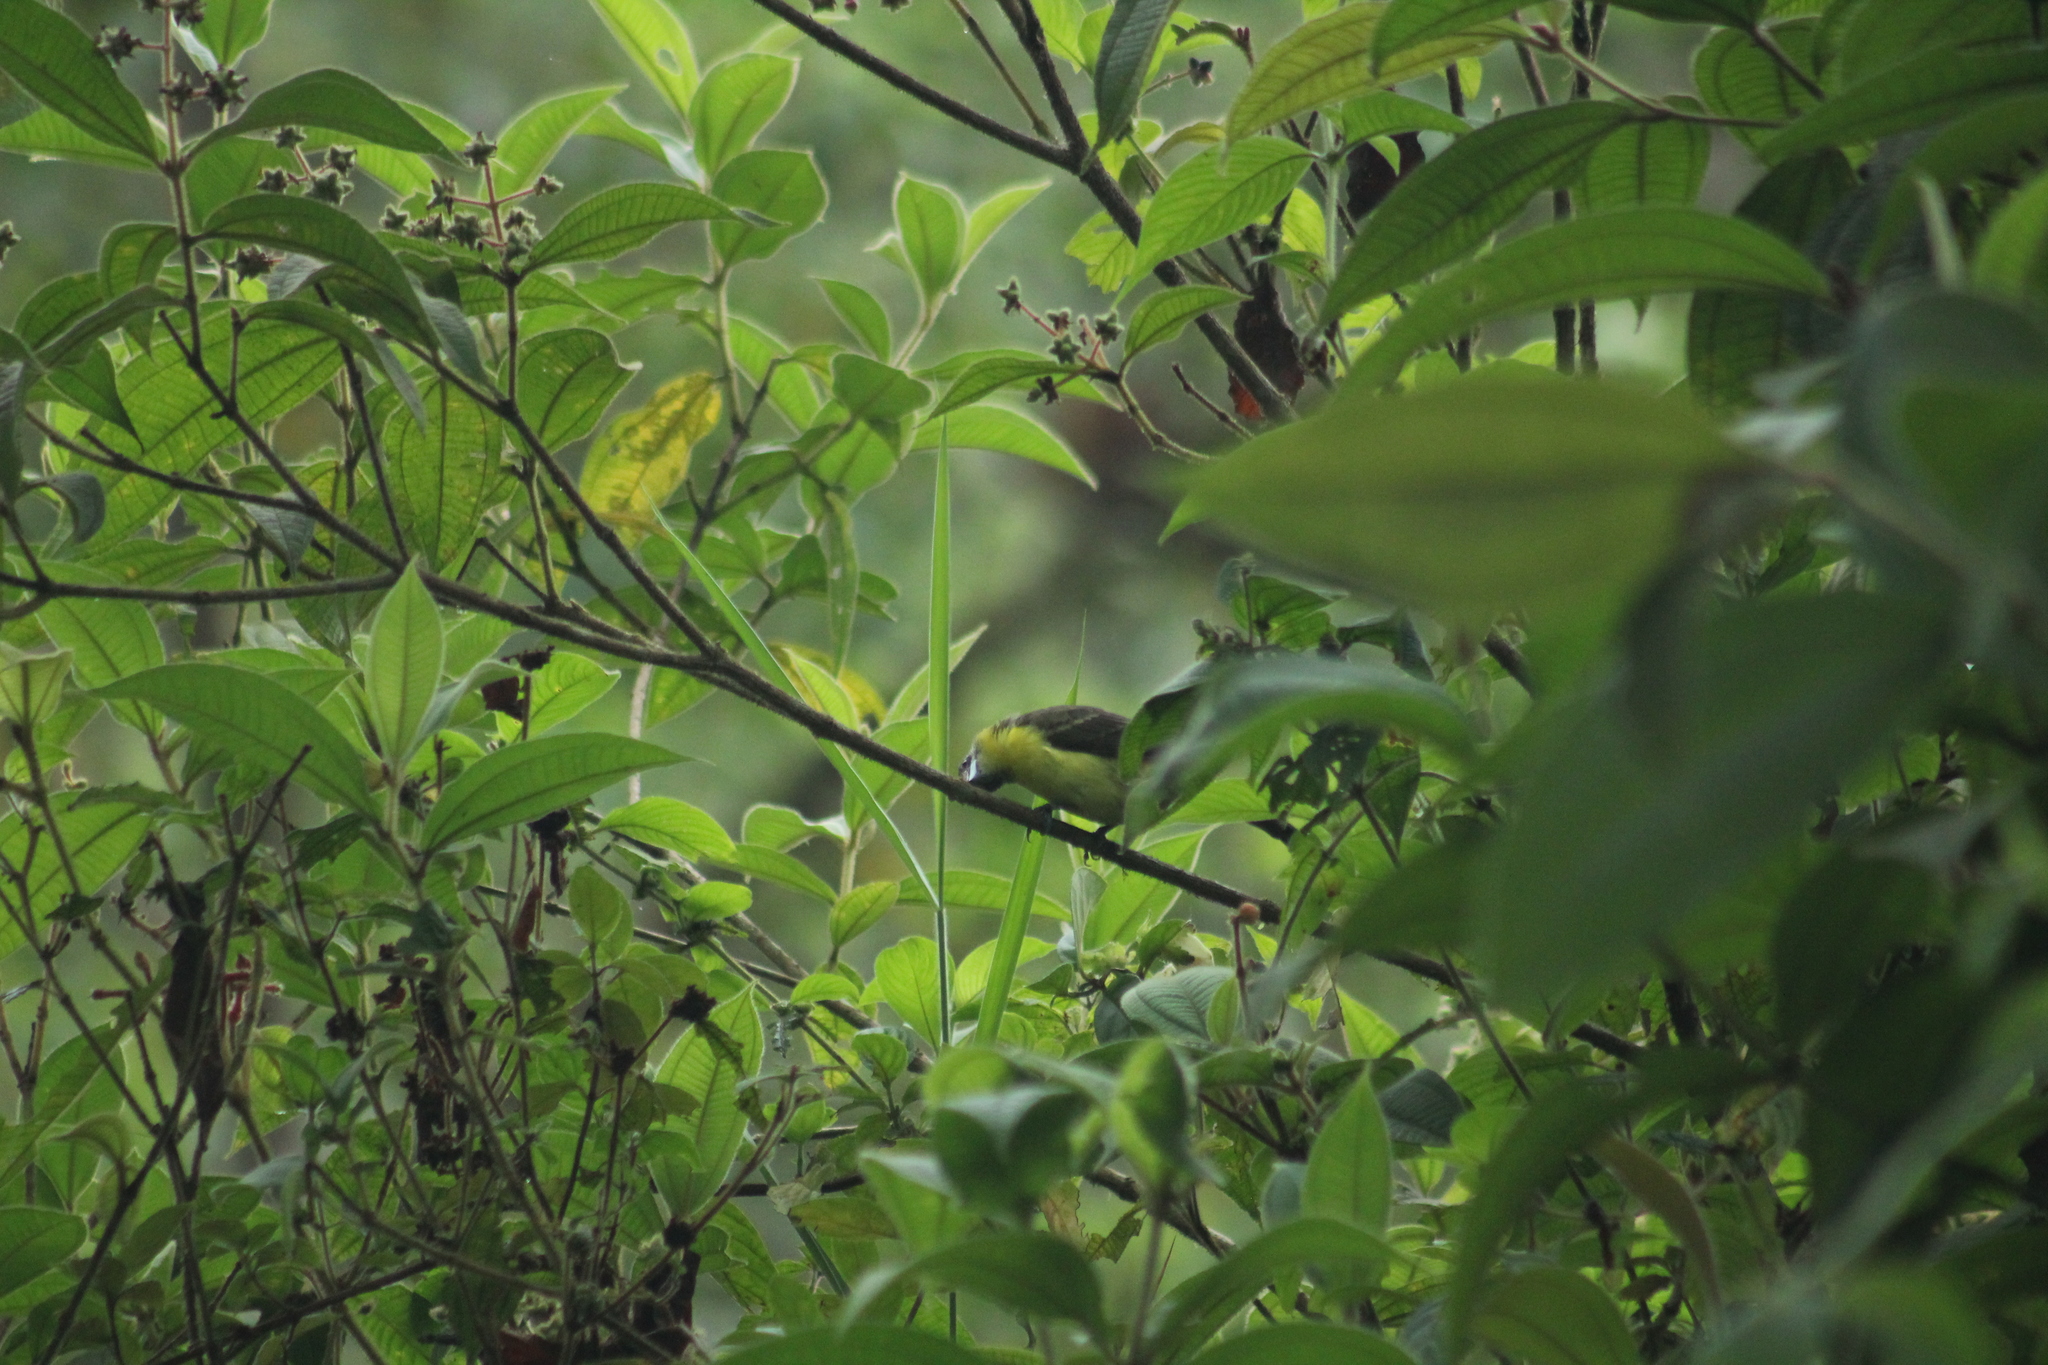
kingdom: Animalia
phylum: Chordata
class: Aves
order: Passeriformes
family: Thraupidae
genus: Ramphocelus
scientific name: Ramphocelus icteronotus
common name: Lemon-rumped tanager
